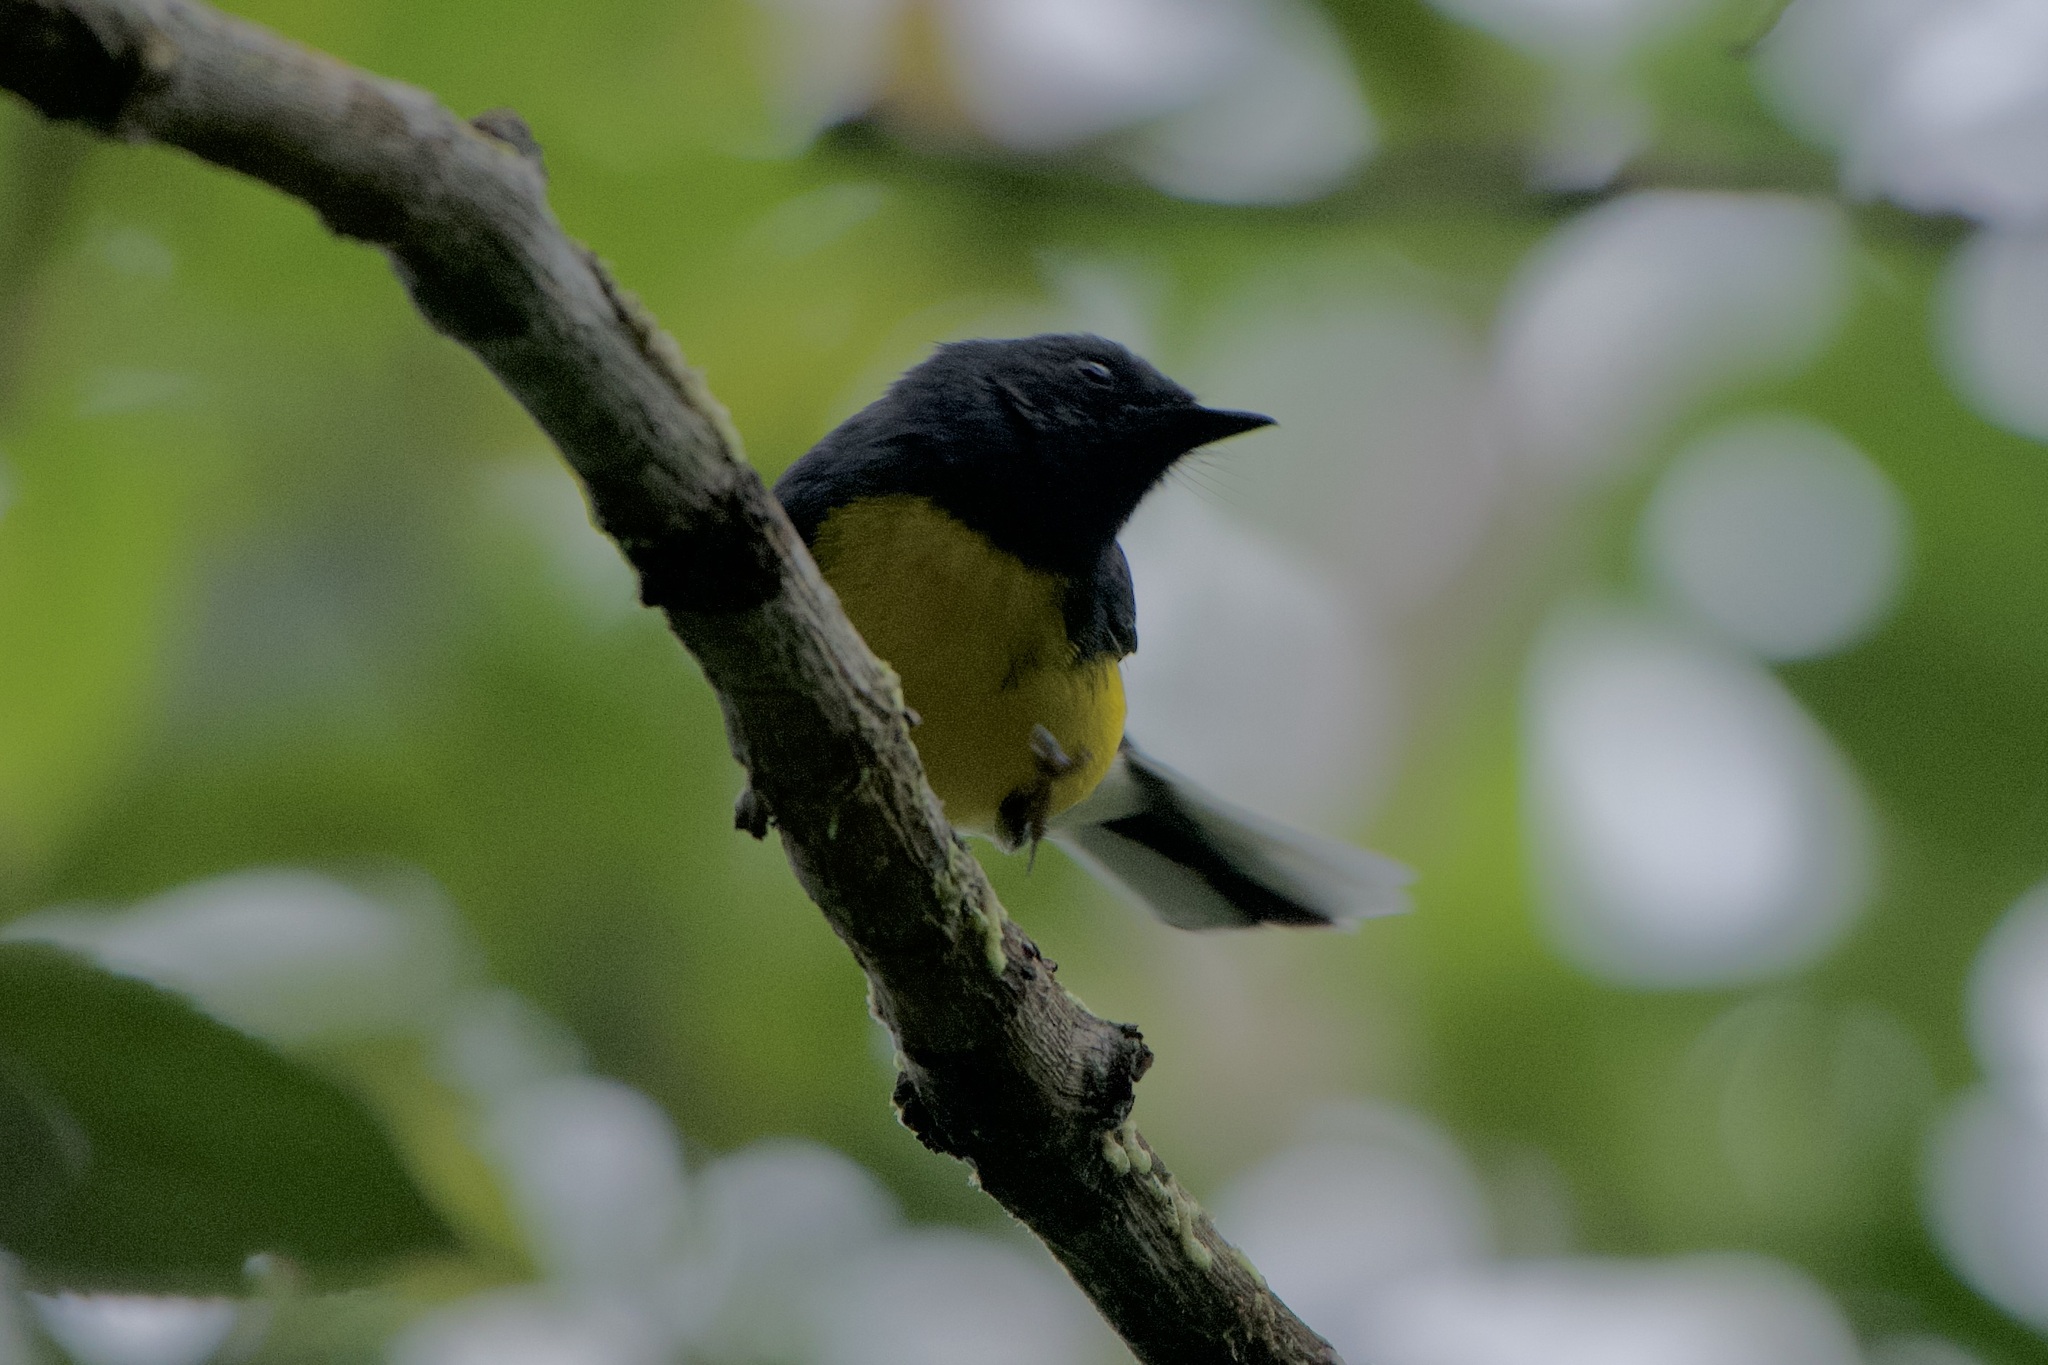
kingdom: Animalia
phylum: Chordata
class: Aves
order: Passeriformes
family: Parulidae
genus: Myioborus
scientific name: Myioborus miniatus
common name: Slate-throated redstart
